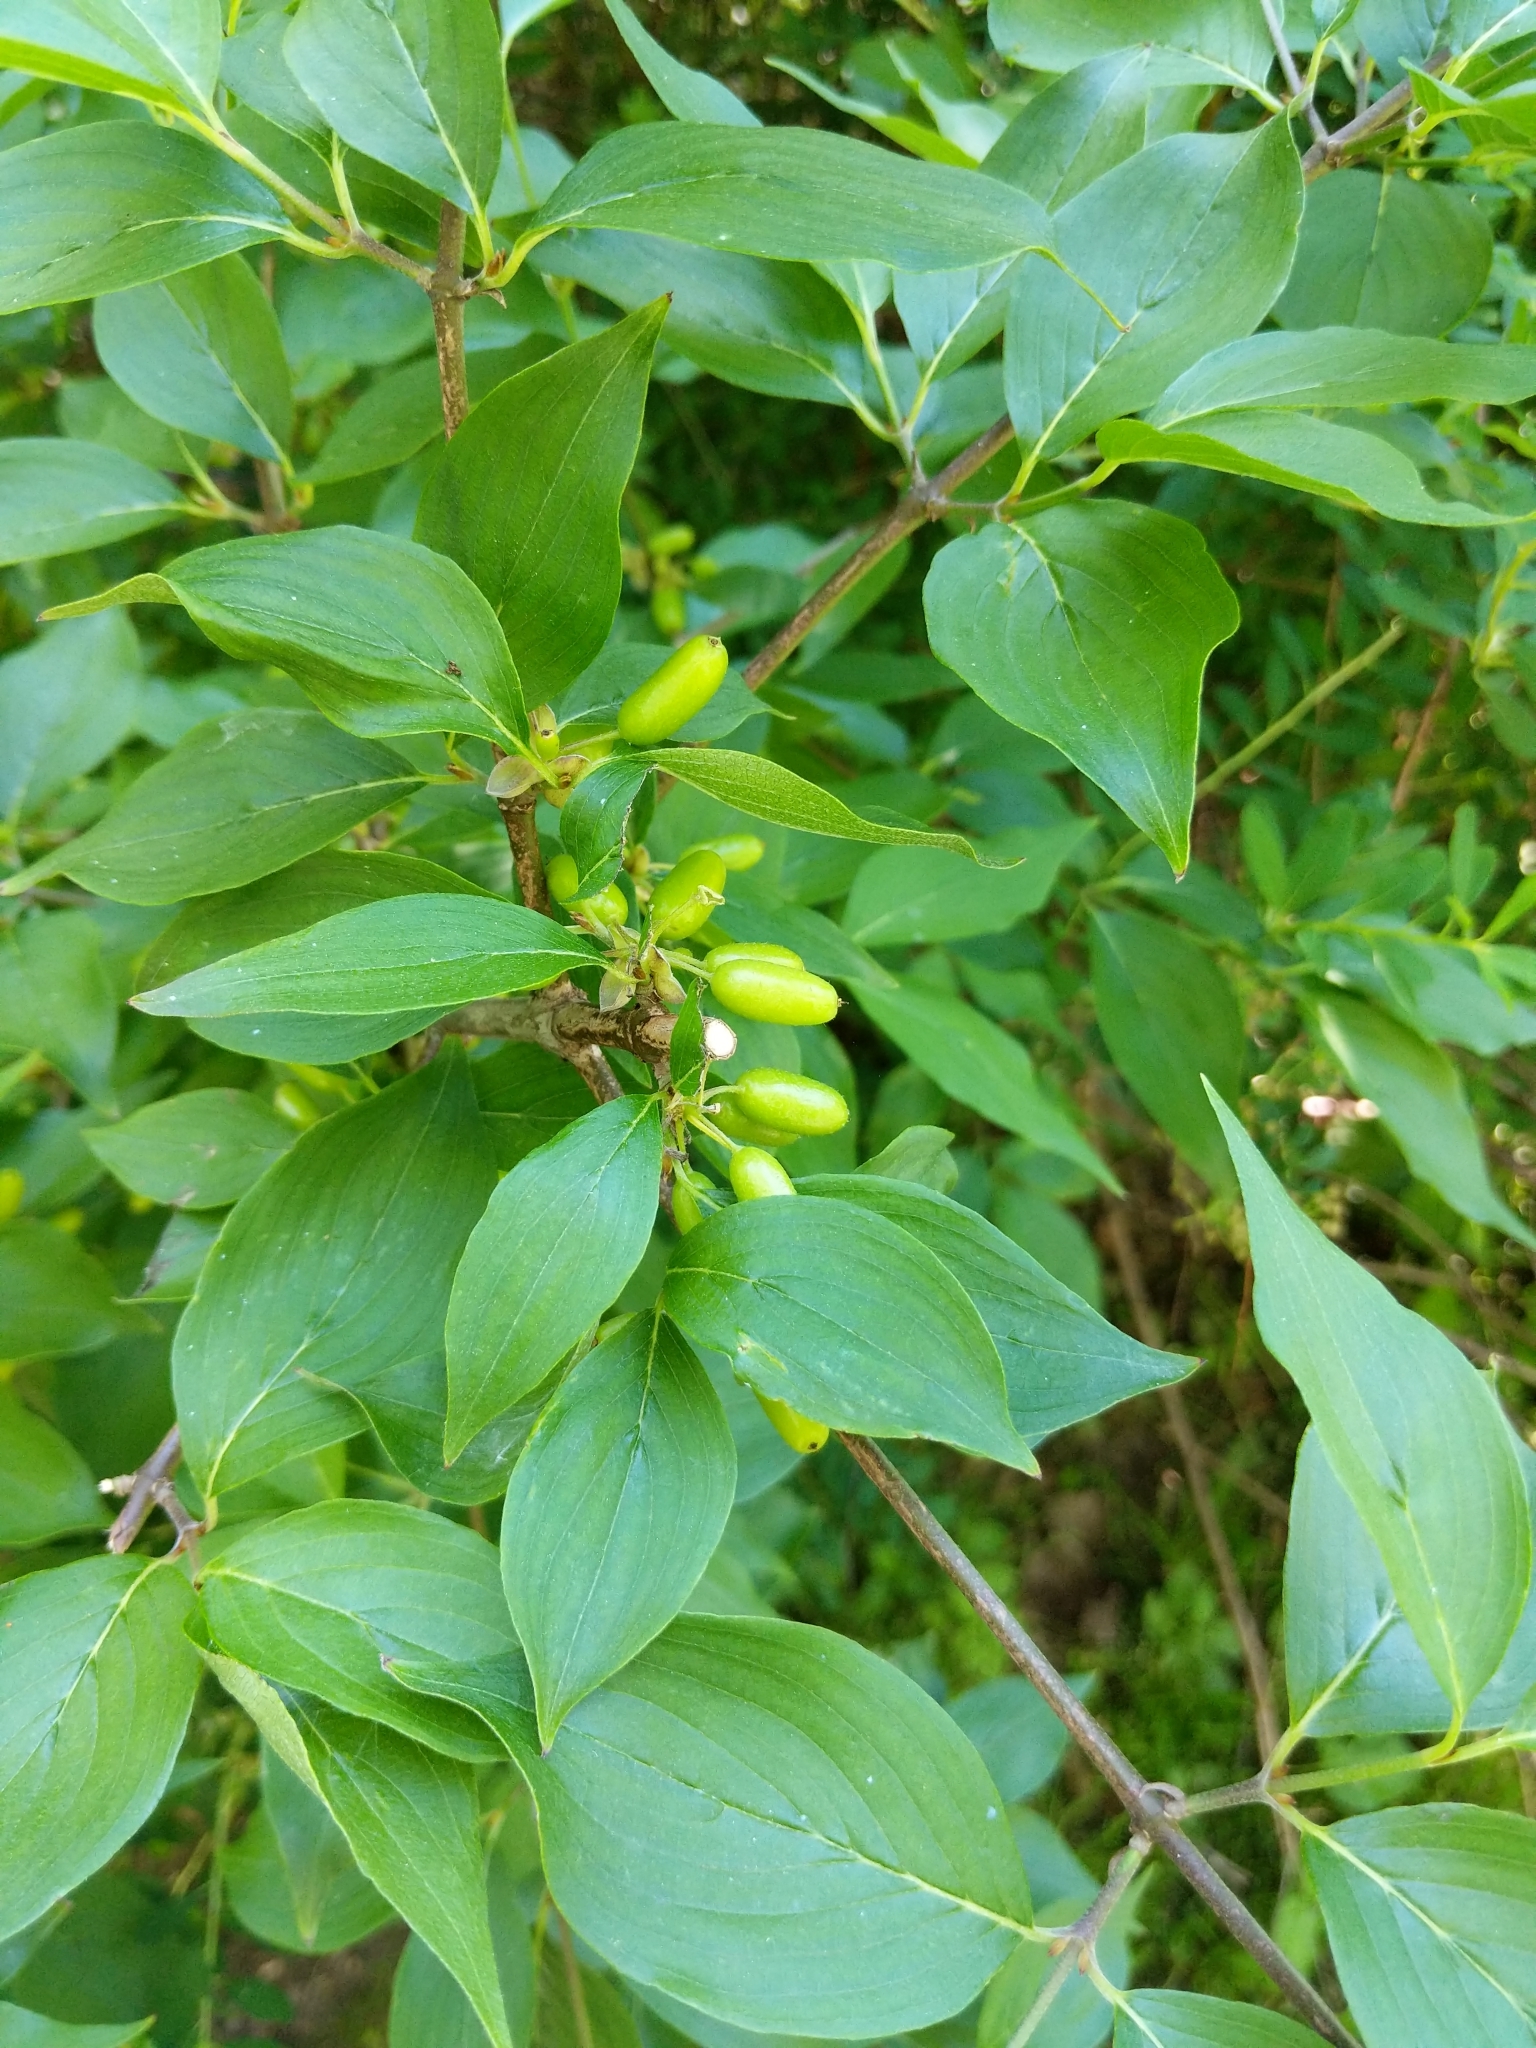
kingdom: Plantae
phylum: Tracheophyta
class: Magnoliopsida
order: Cornales
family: Cornaceae
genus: Cornus
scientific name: Cornus mas
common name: Cornelian-cherry
